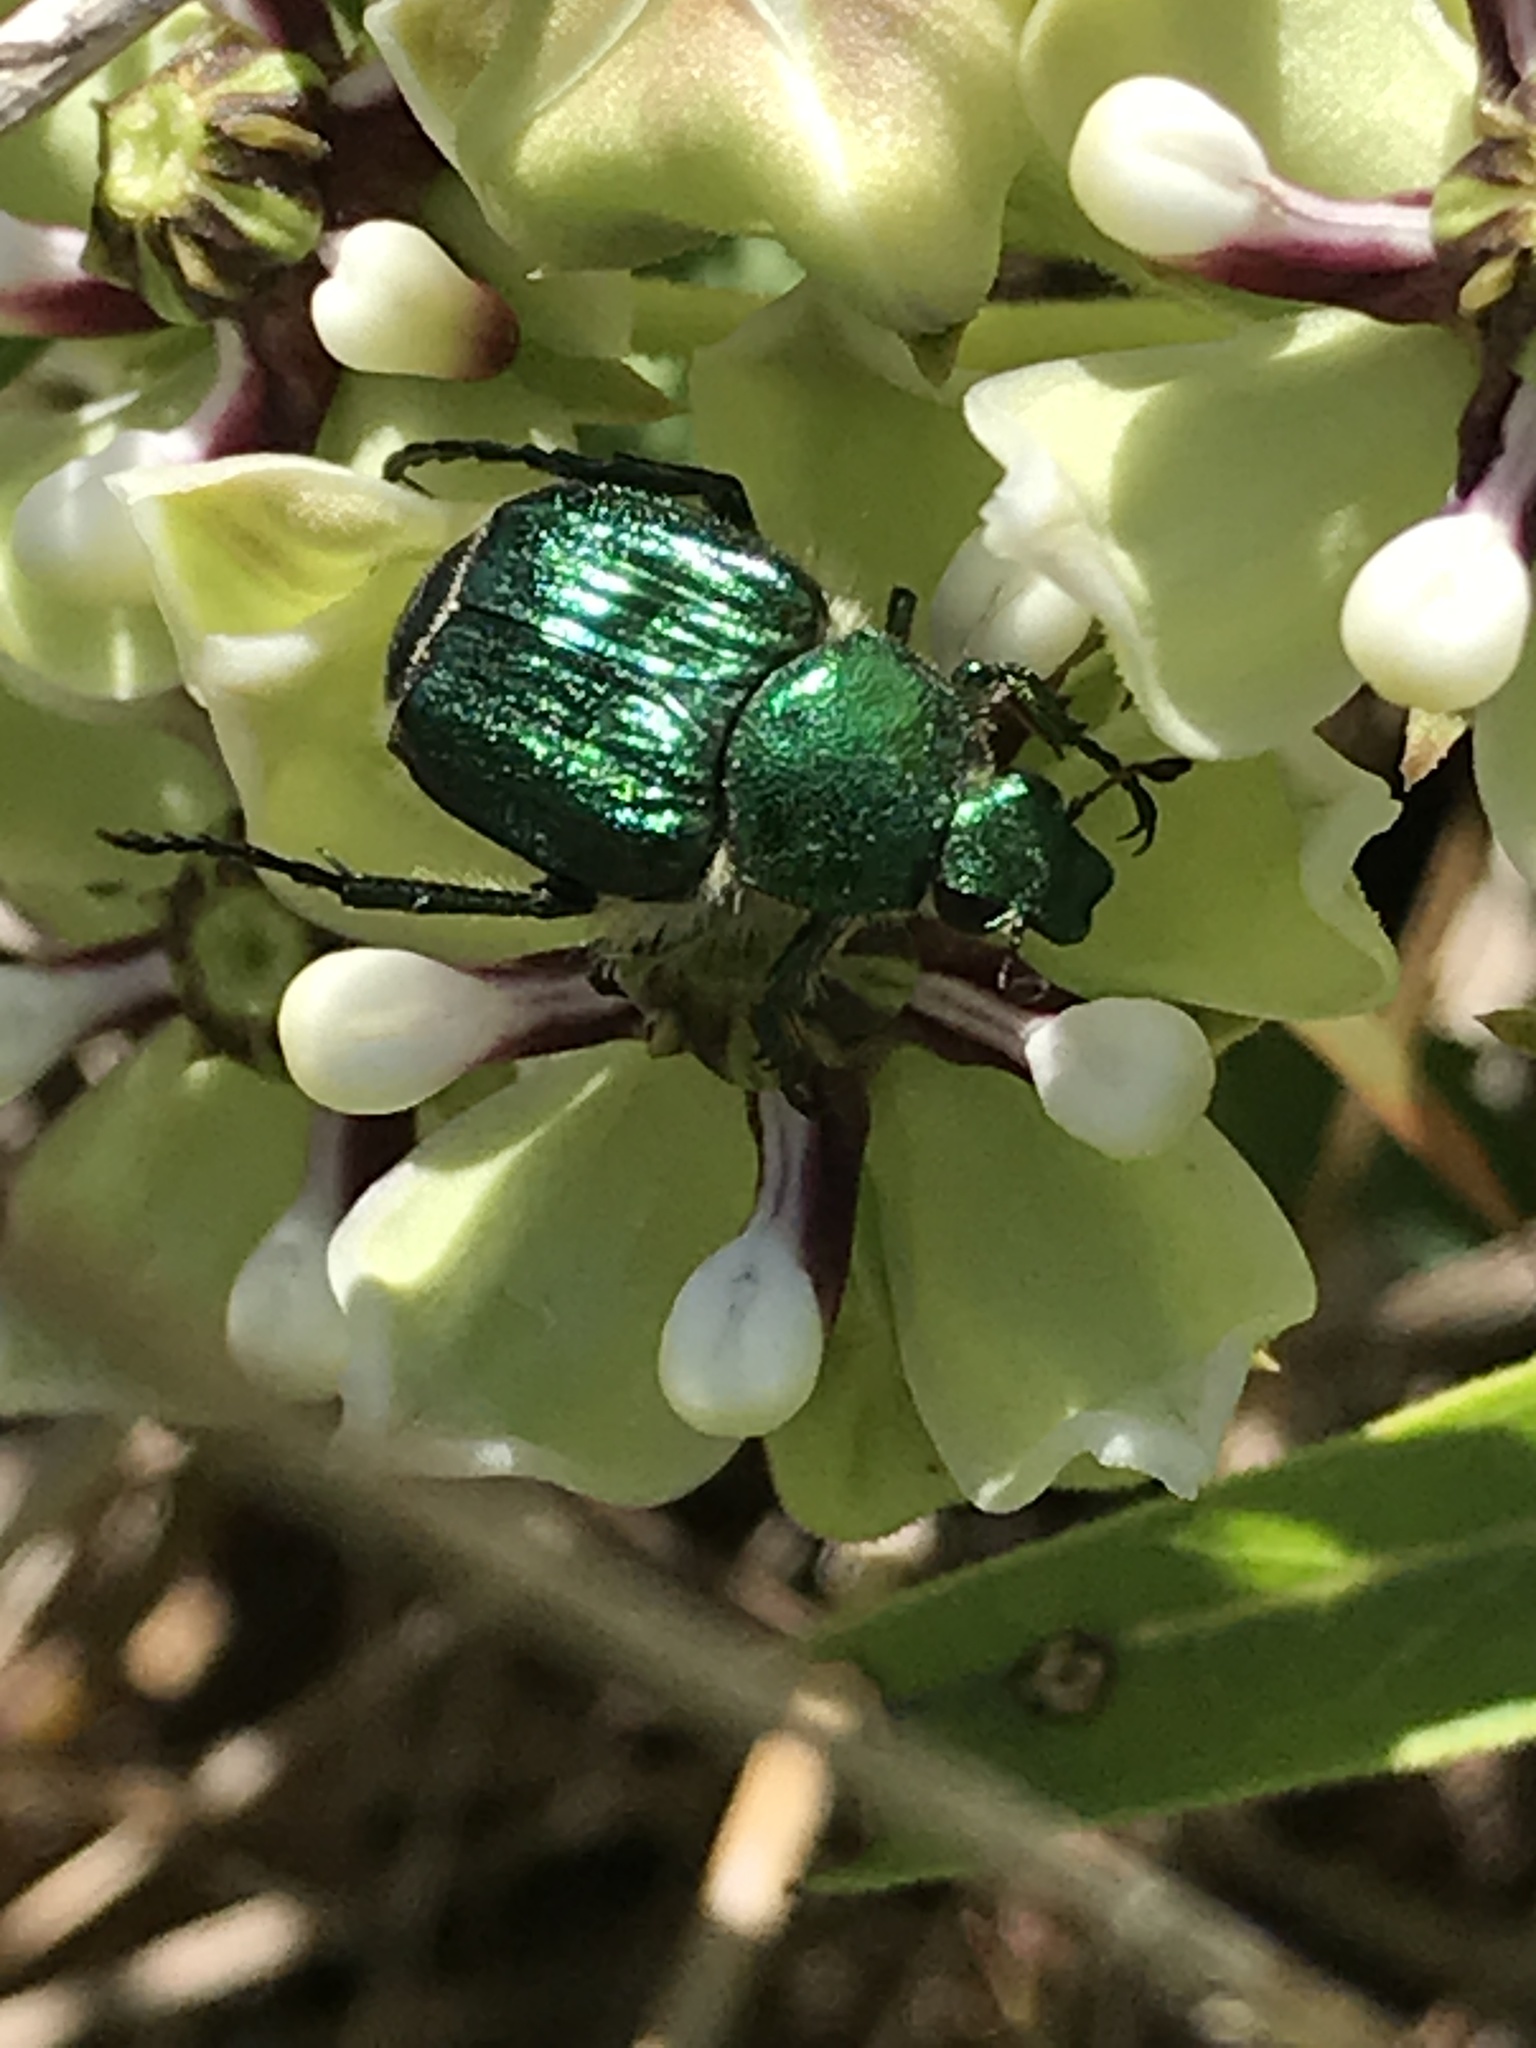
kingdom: Animalia
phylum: Arthropoda
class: Insecta
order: Coleoptera
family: Scarabaeidae
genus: Trichiotinus
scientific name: Trichiotinus lunulatus
